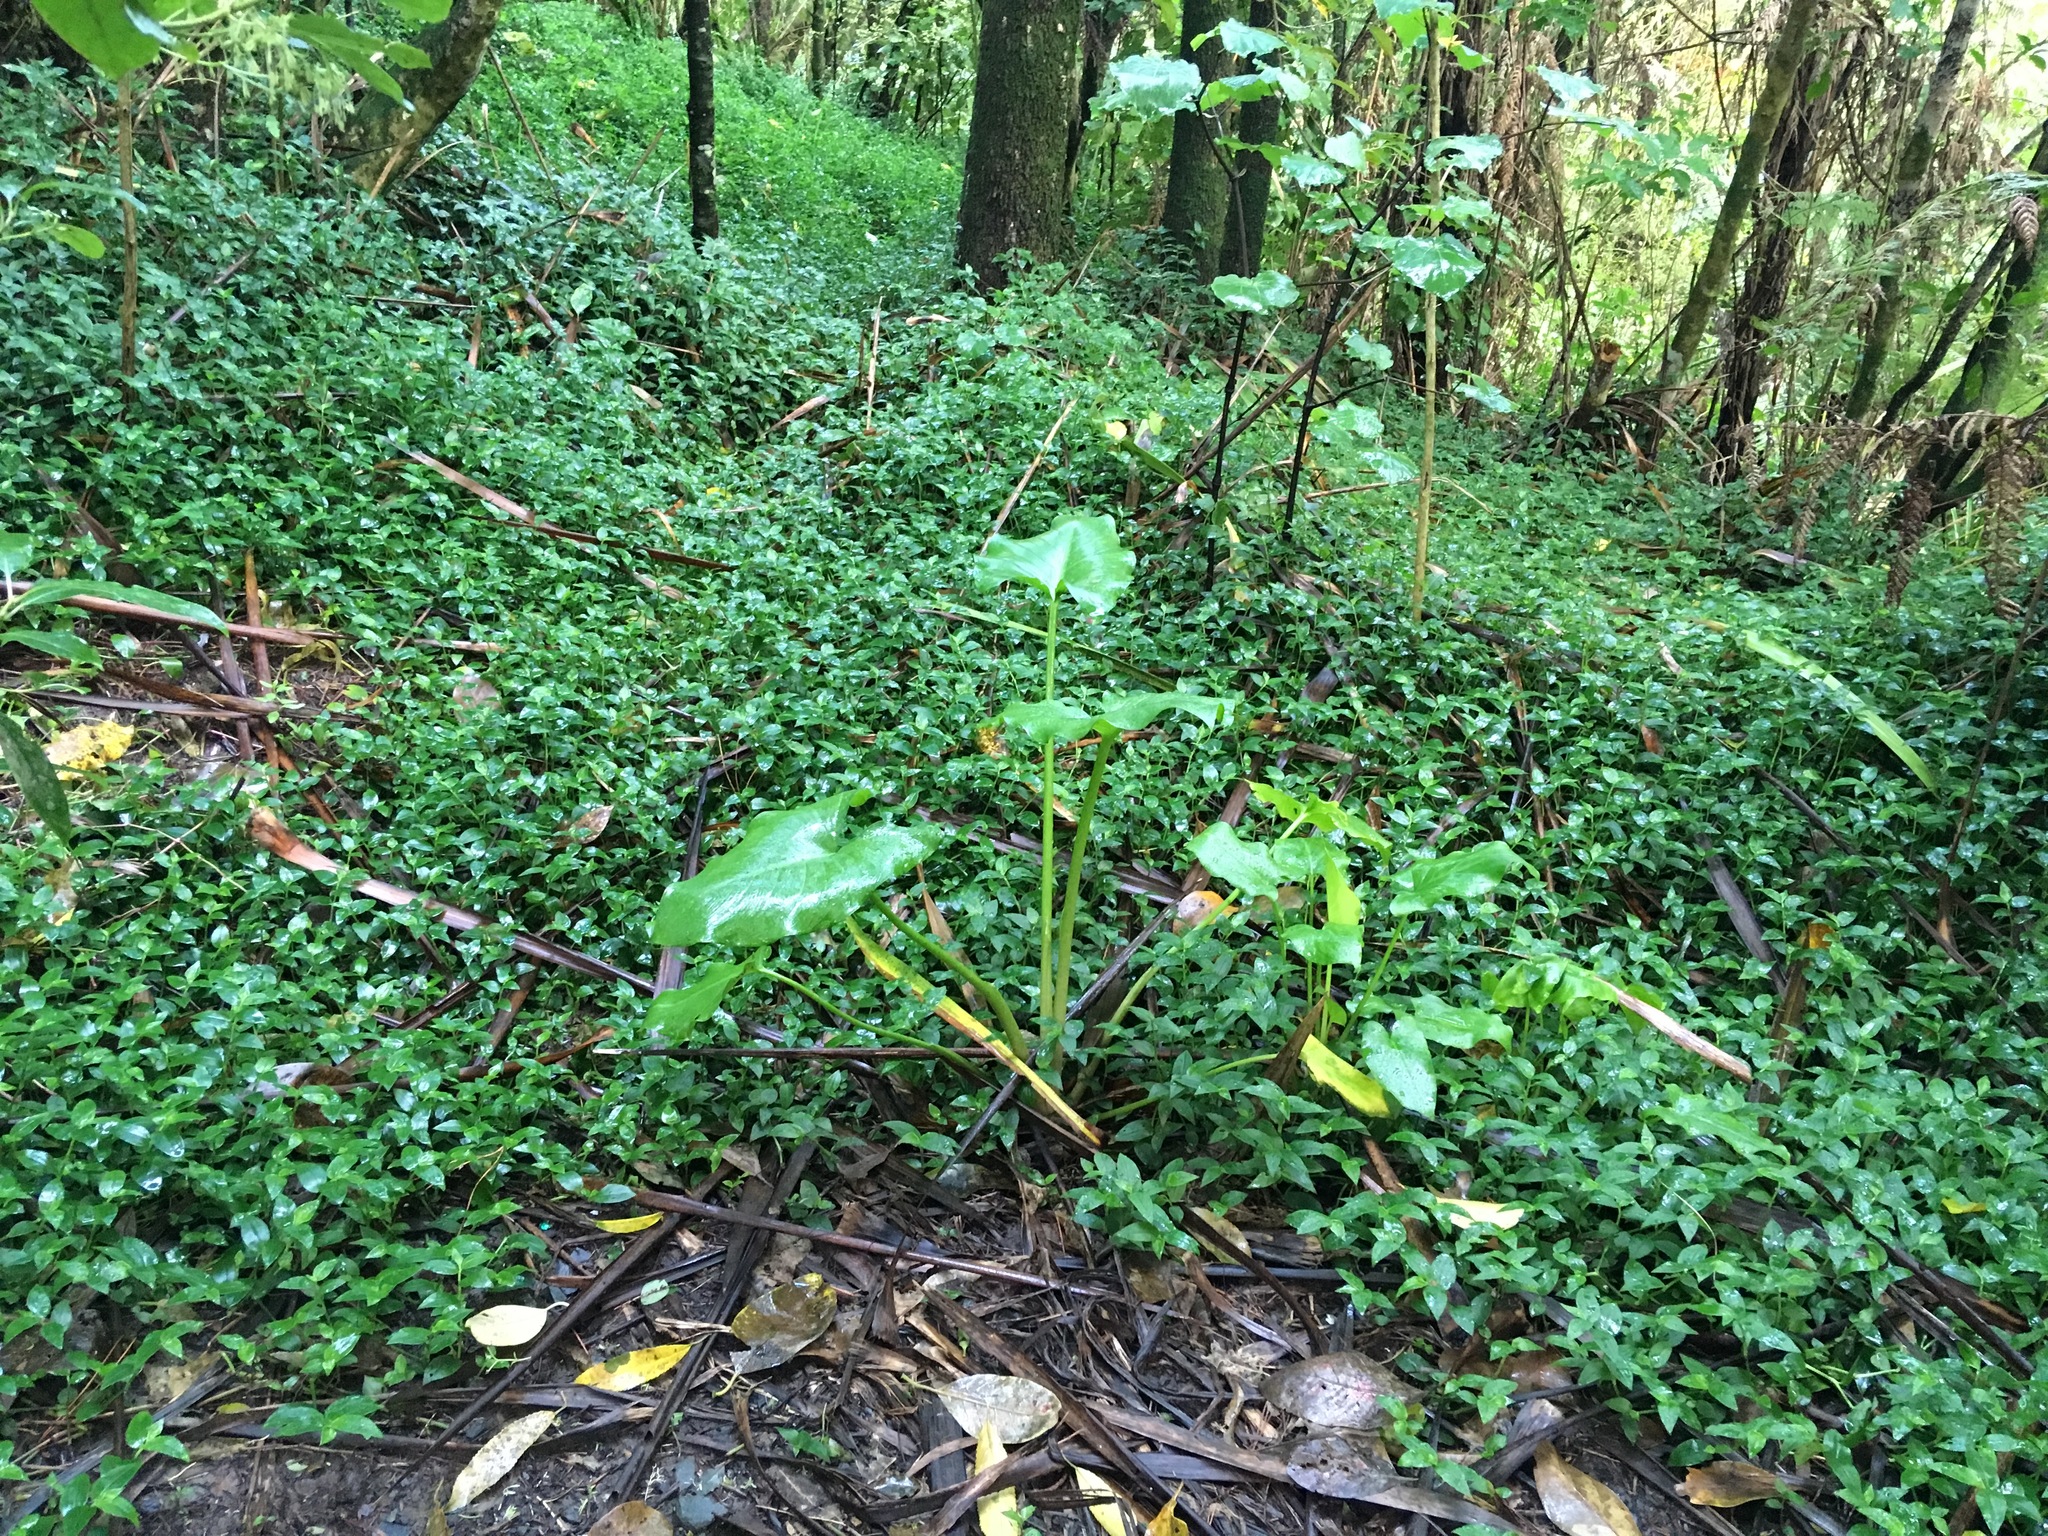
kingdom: Plantae
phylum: Tracheophyta
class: Liliopsida
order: Alismatales
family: Araceae
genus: Zantedeschia
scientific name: Zantedeschia aethiopica
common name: Altar-lily
